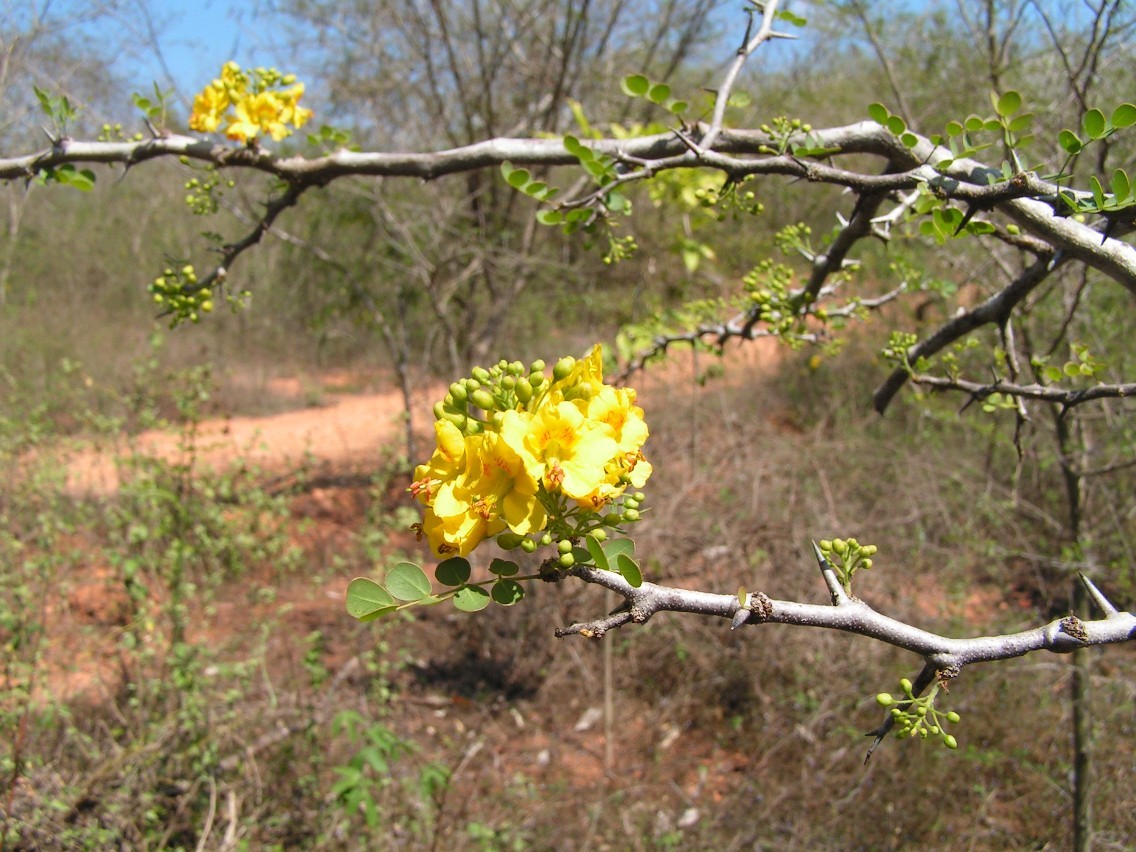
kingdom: Plantae
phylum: Tracheophyta
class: Magnoliopsida
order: Fabales
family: Fabaceae
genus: Haematoxylum
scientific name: Haematoxylum brasiletto
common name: Peachwood
